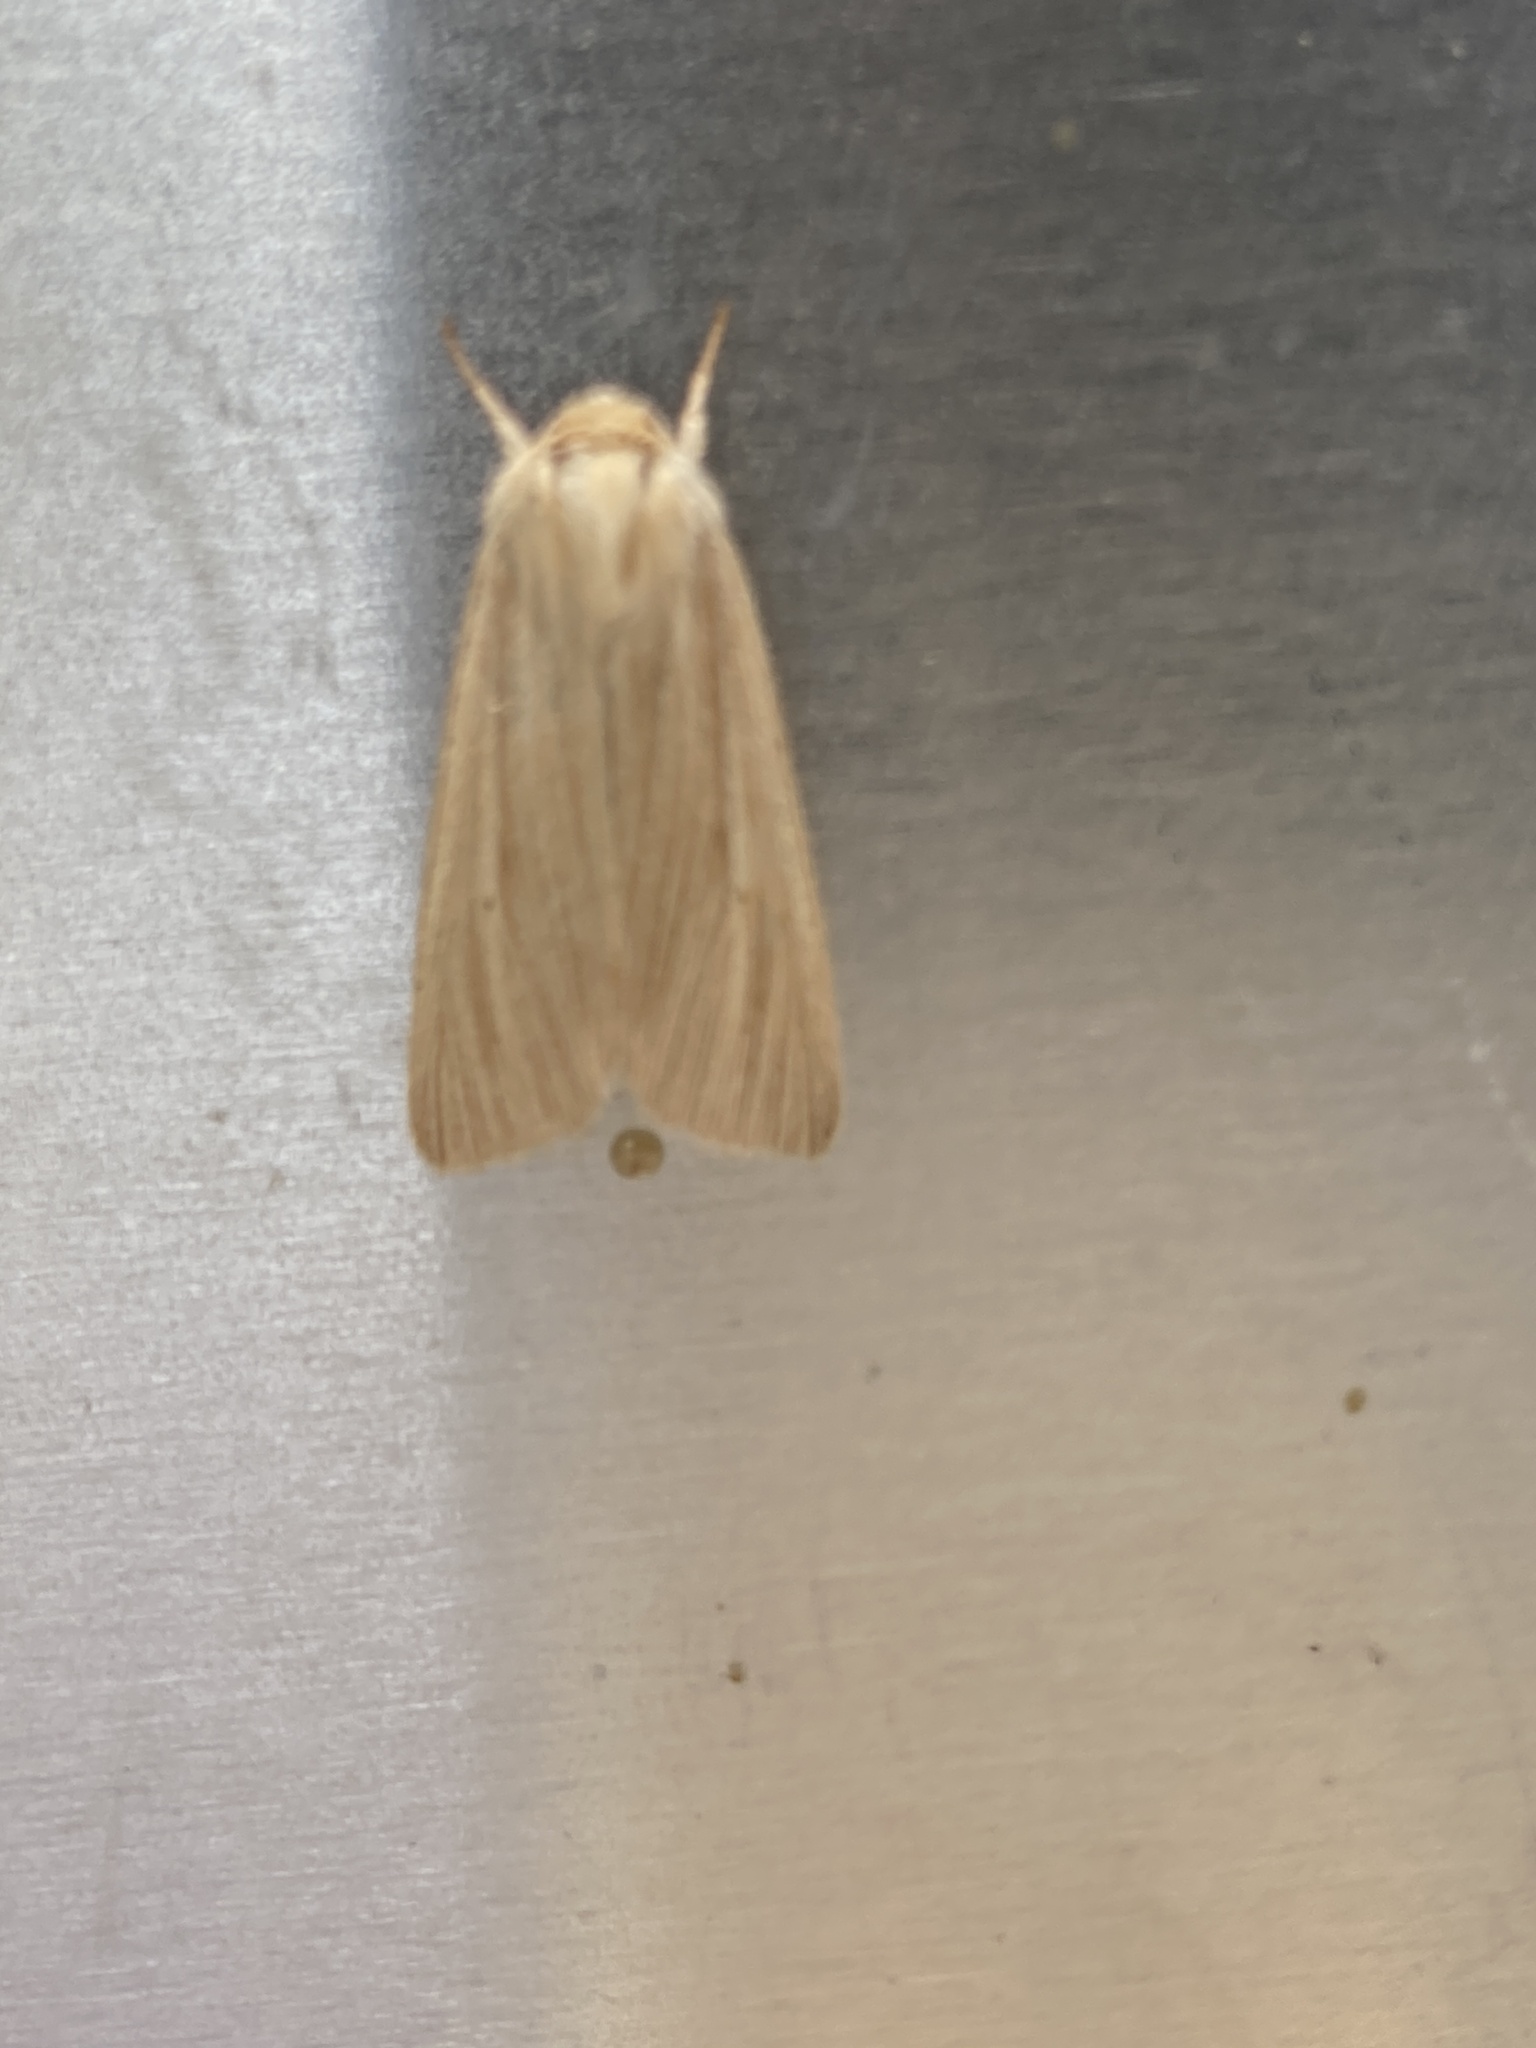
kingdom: Animalia
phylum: Arthropoda
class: Insecta
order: Lepidoptera
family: Noctuidae
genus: Mythimna
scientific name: Mythimna pallens
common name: Common wainscot
